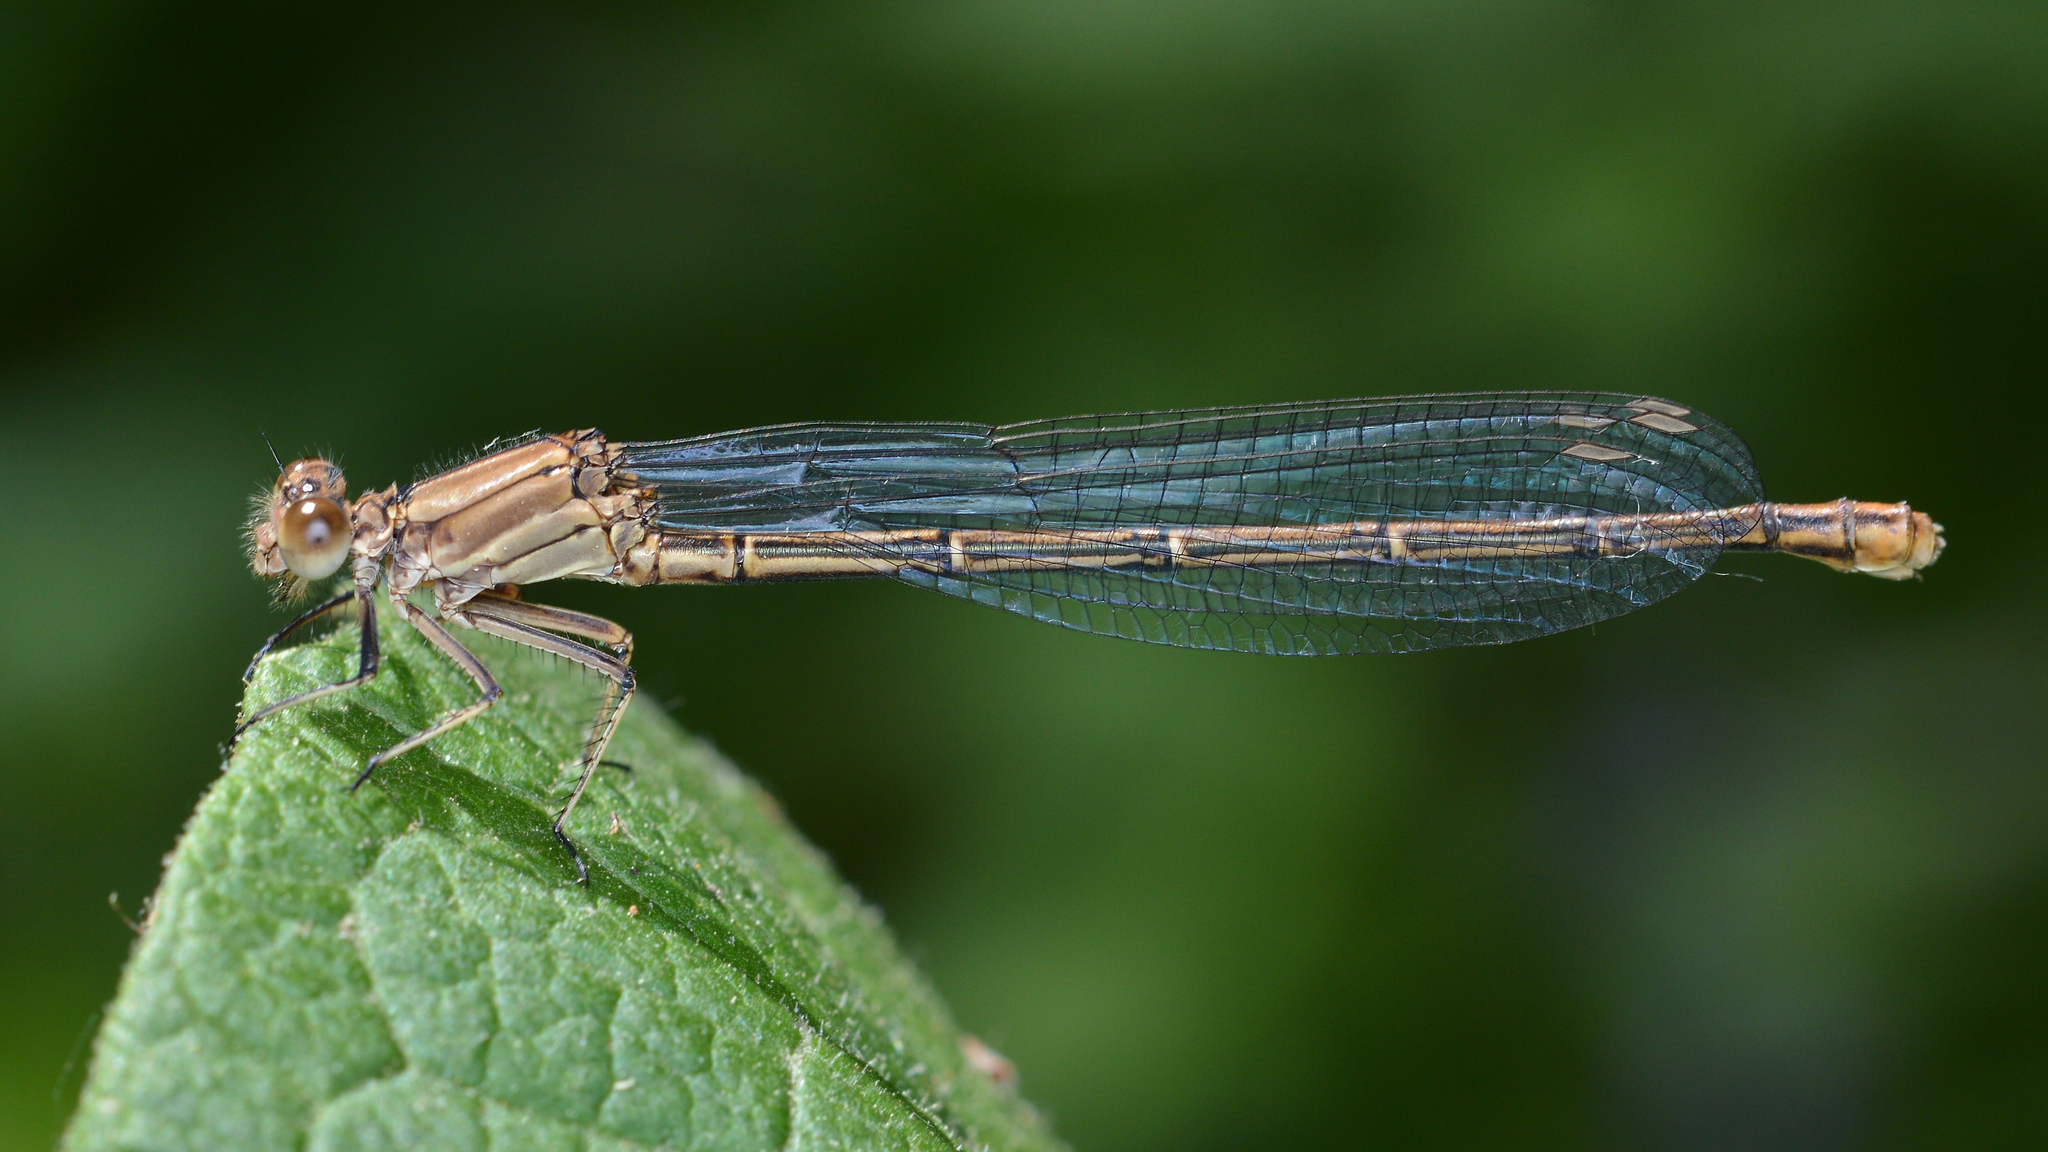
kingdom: Animalia
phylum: Arthropoda
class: Insecta
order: Odonata
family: Coenagrionidae
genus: Argia
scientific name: Argia moesta
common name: Powdered dancer
